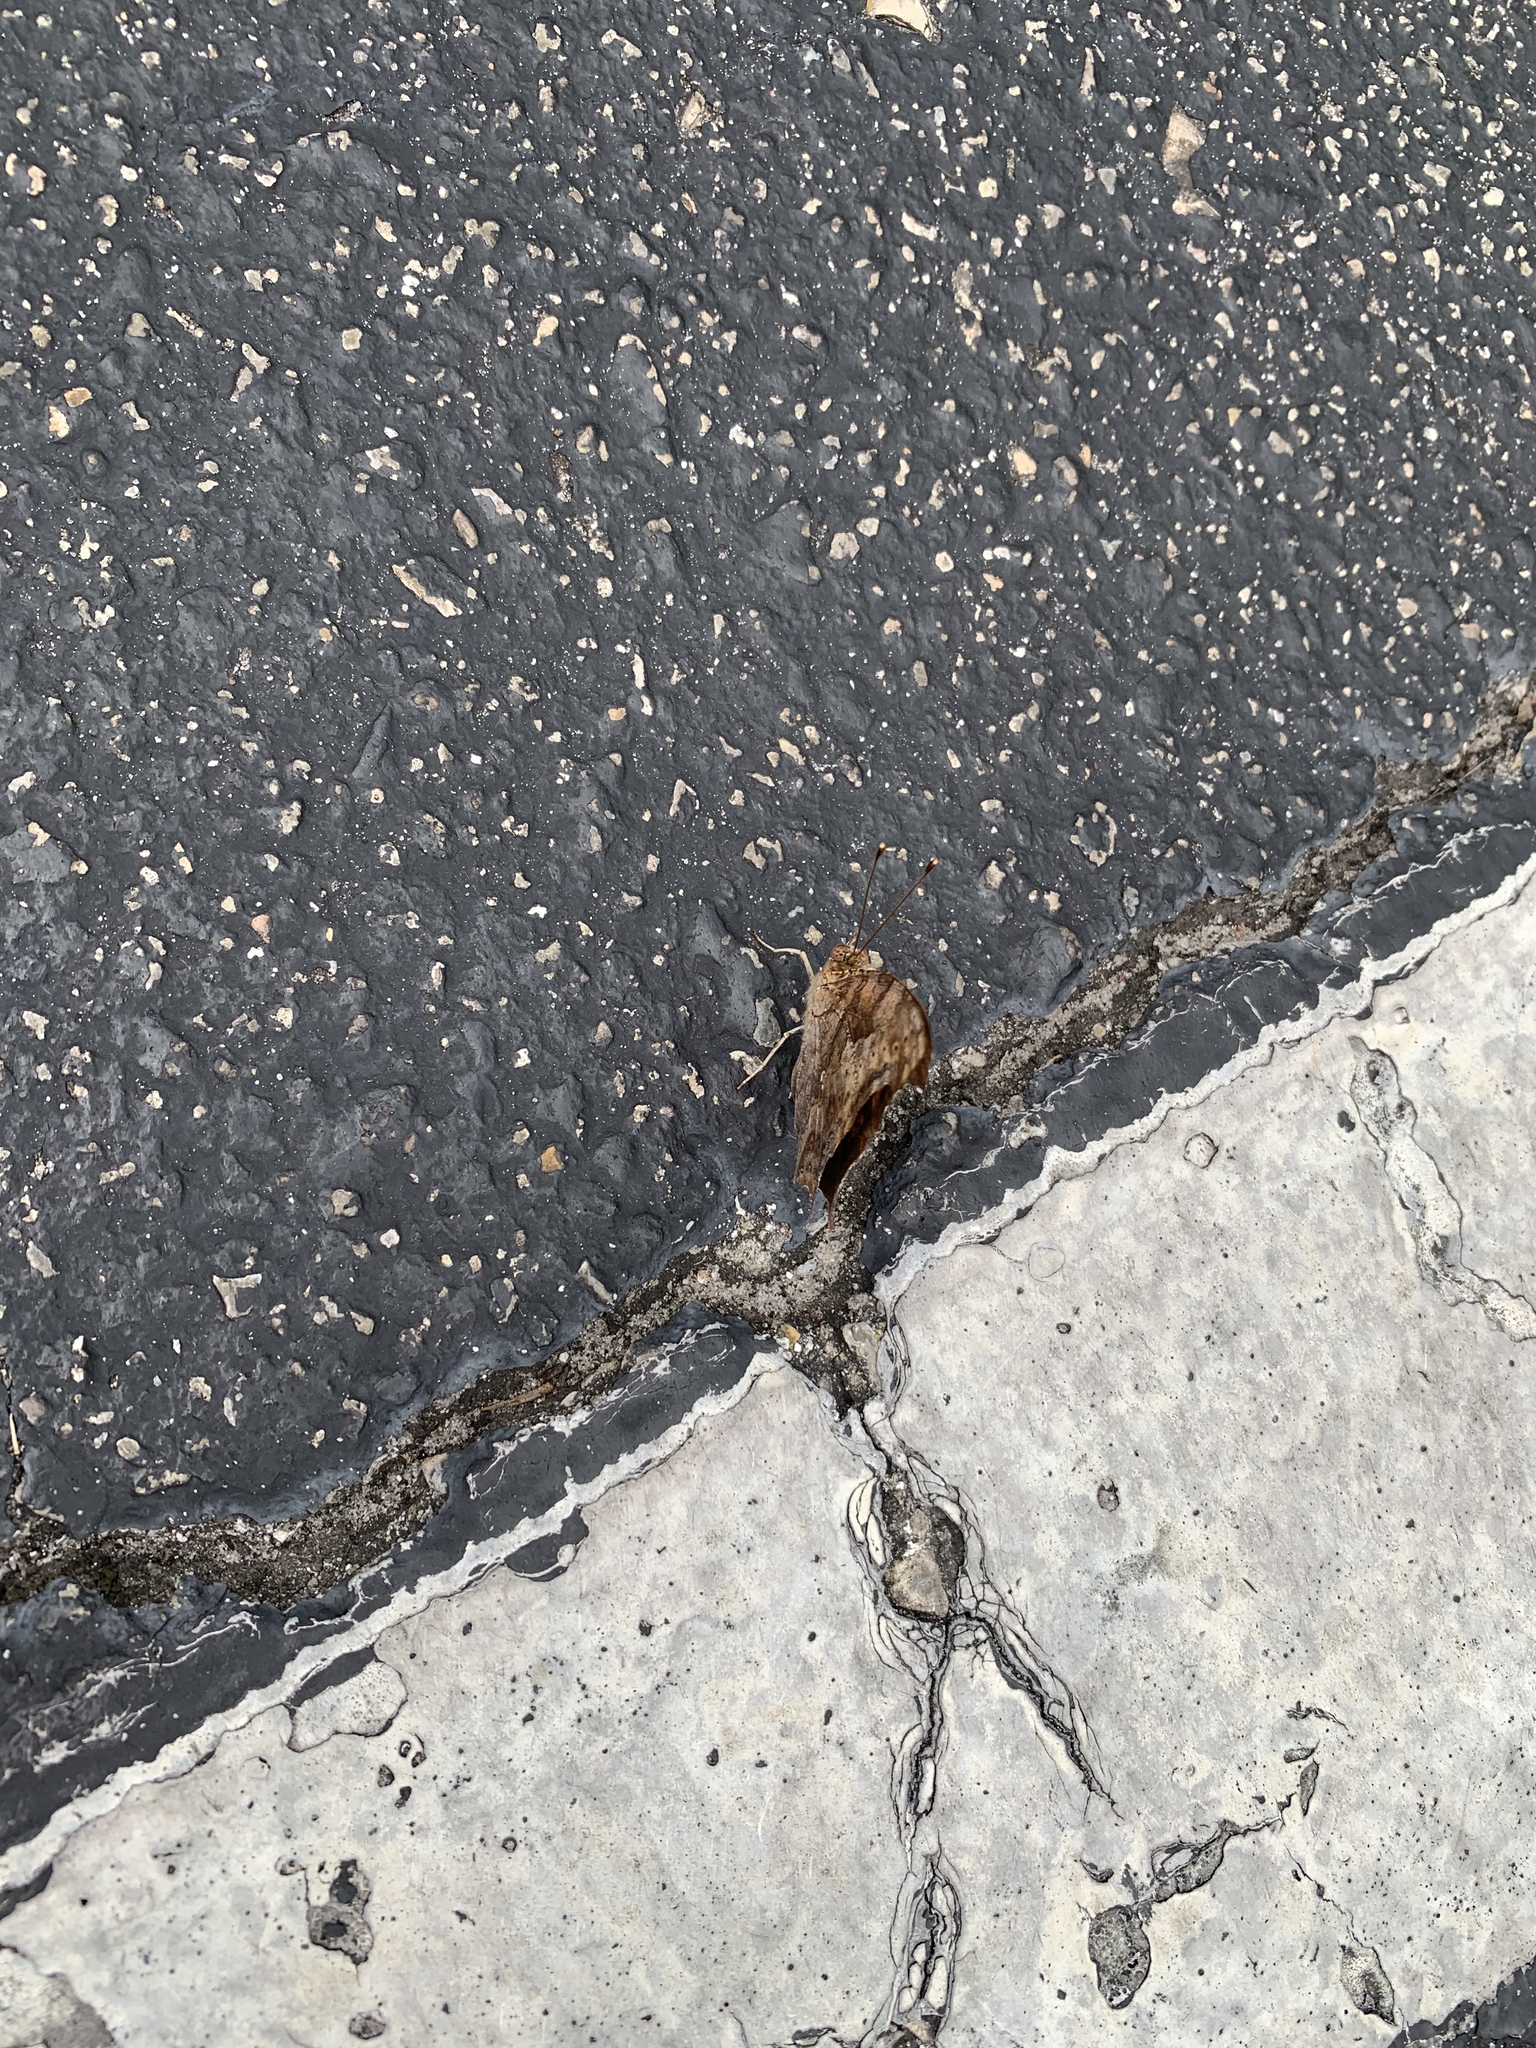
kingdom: Animalia
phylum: Arthropoda
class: Insecta
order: Lepidoptera
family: Nymphalidae
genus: Polygonia
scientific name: Polygonia interrogationis
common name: Question mark
